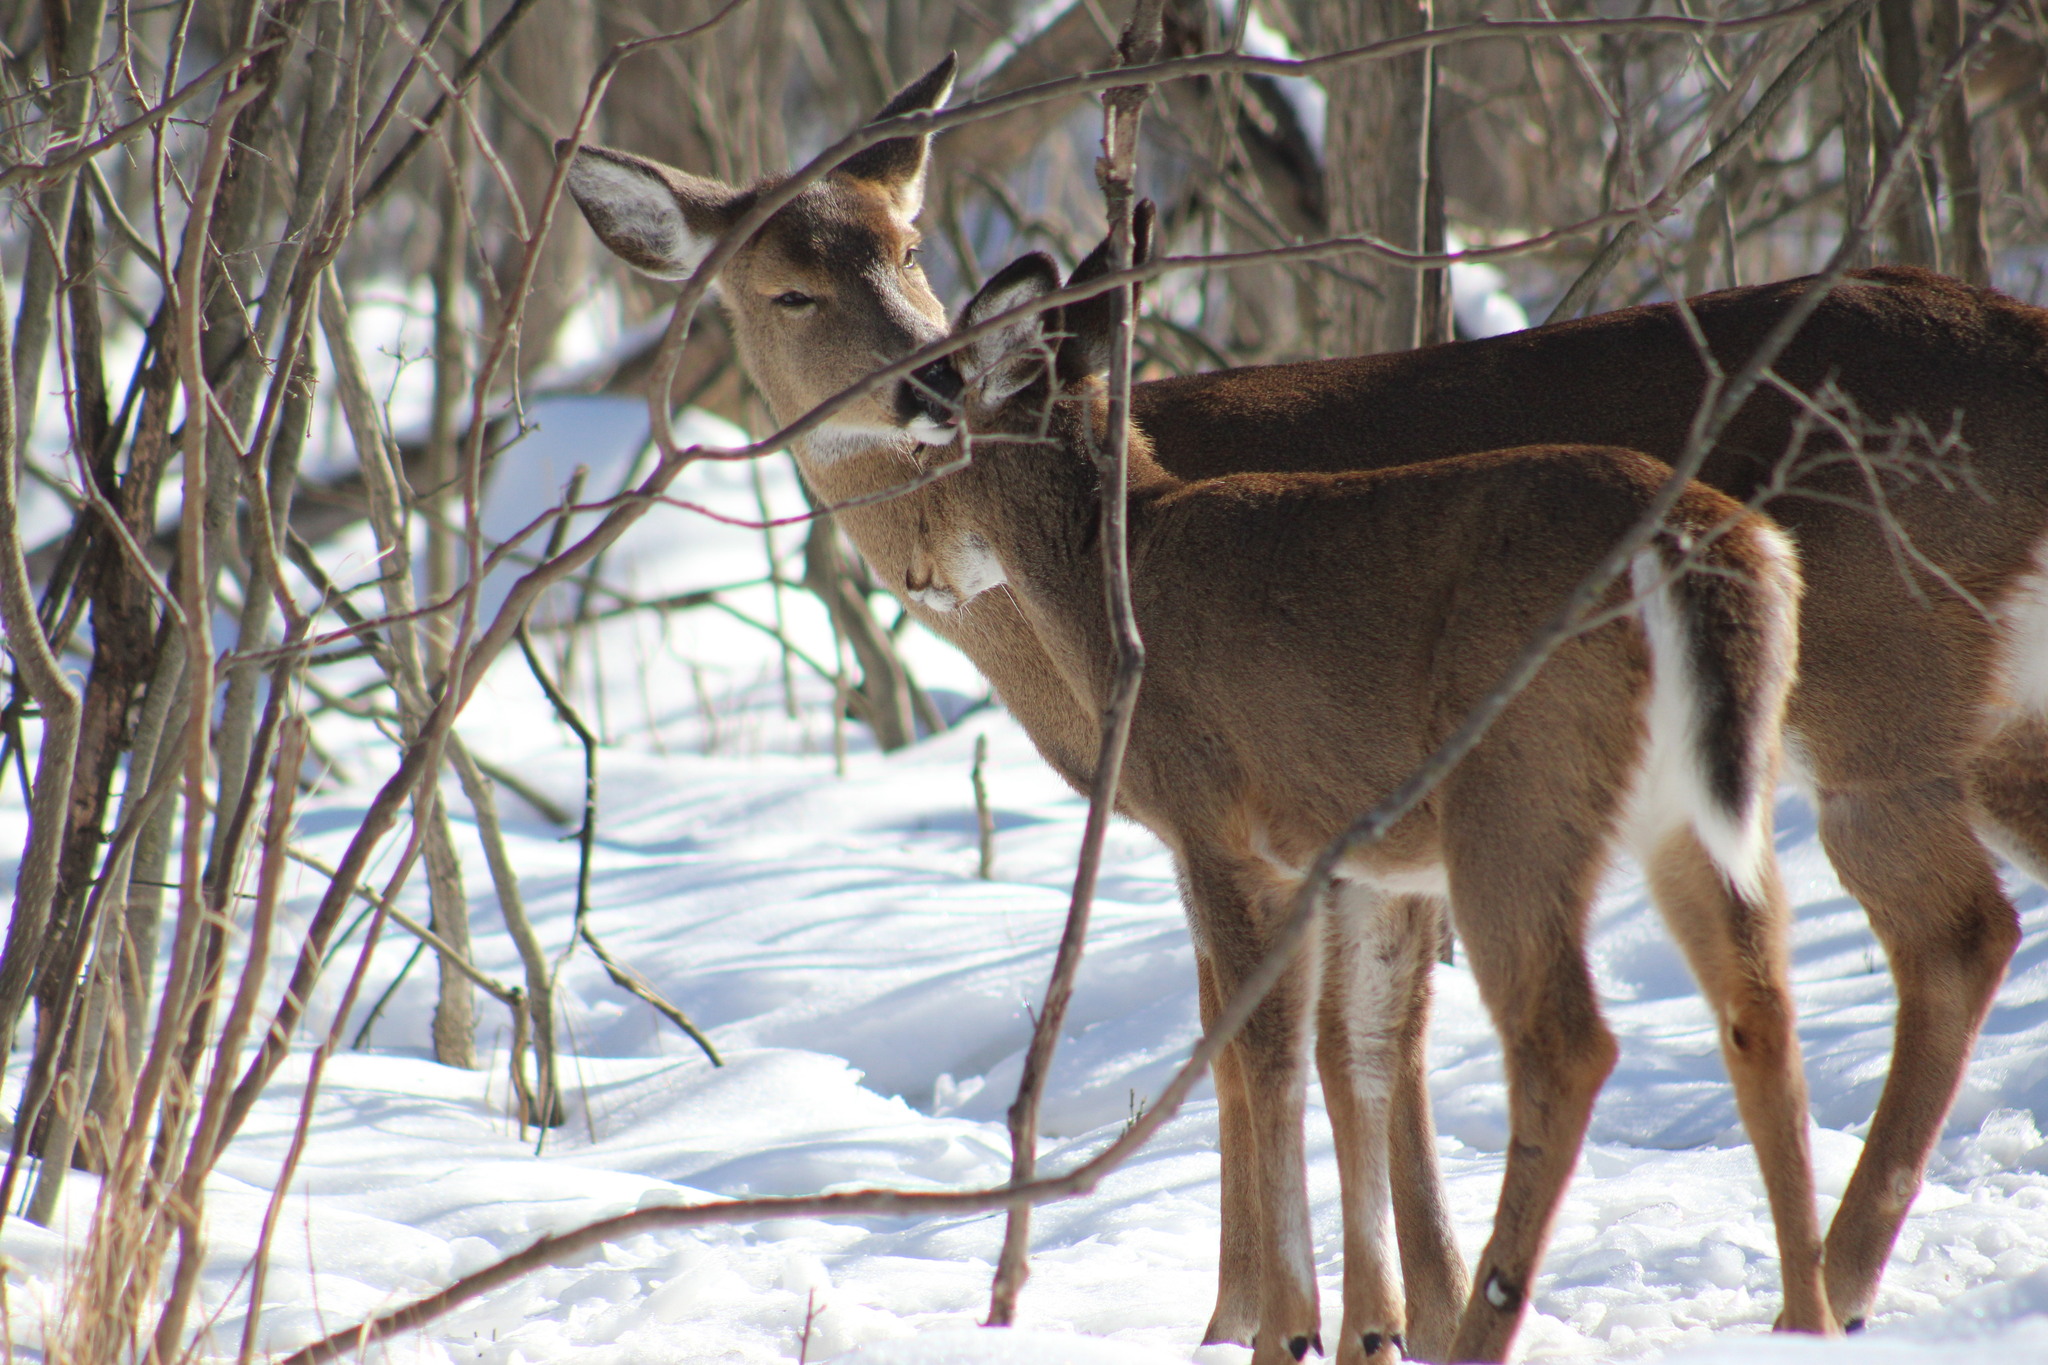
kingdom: Animalia
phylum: Chordata
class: Mammalia
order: Artiodactyla
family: Cervidae
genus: Odocoileus
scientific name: Odocoileus virginianus
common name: White-tailed deer
